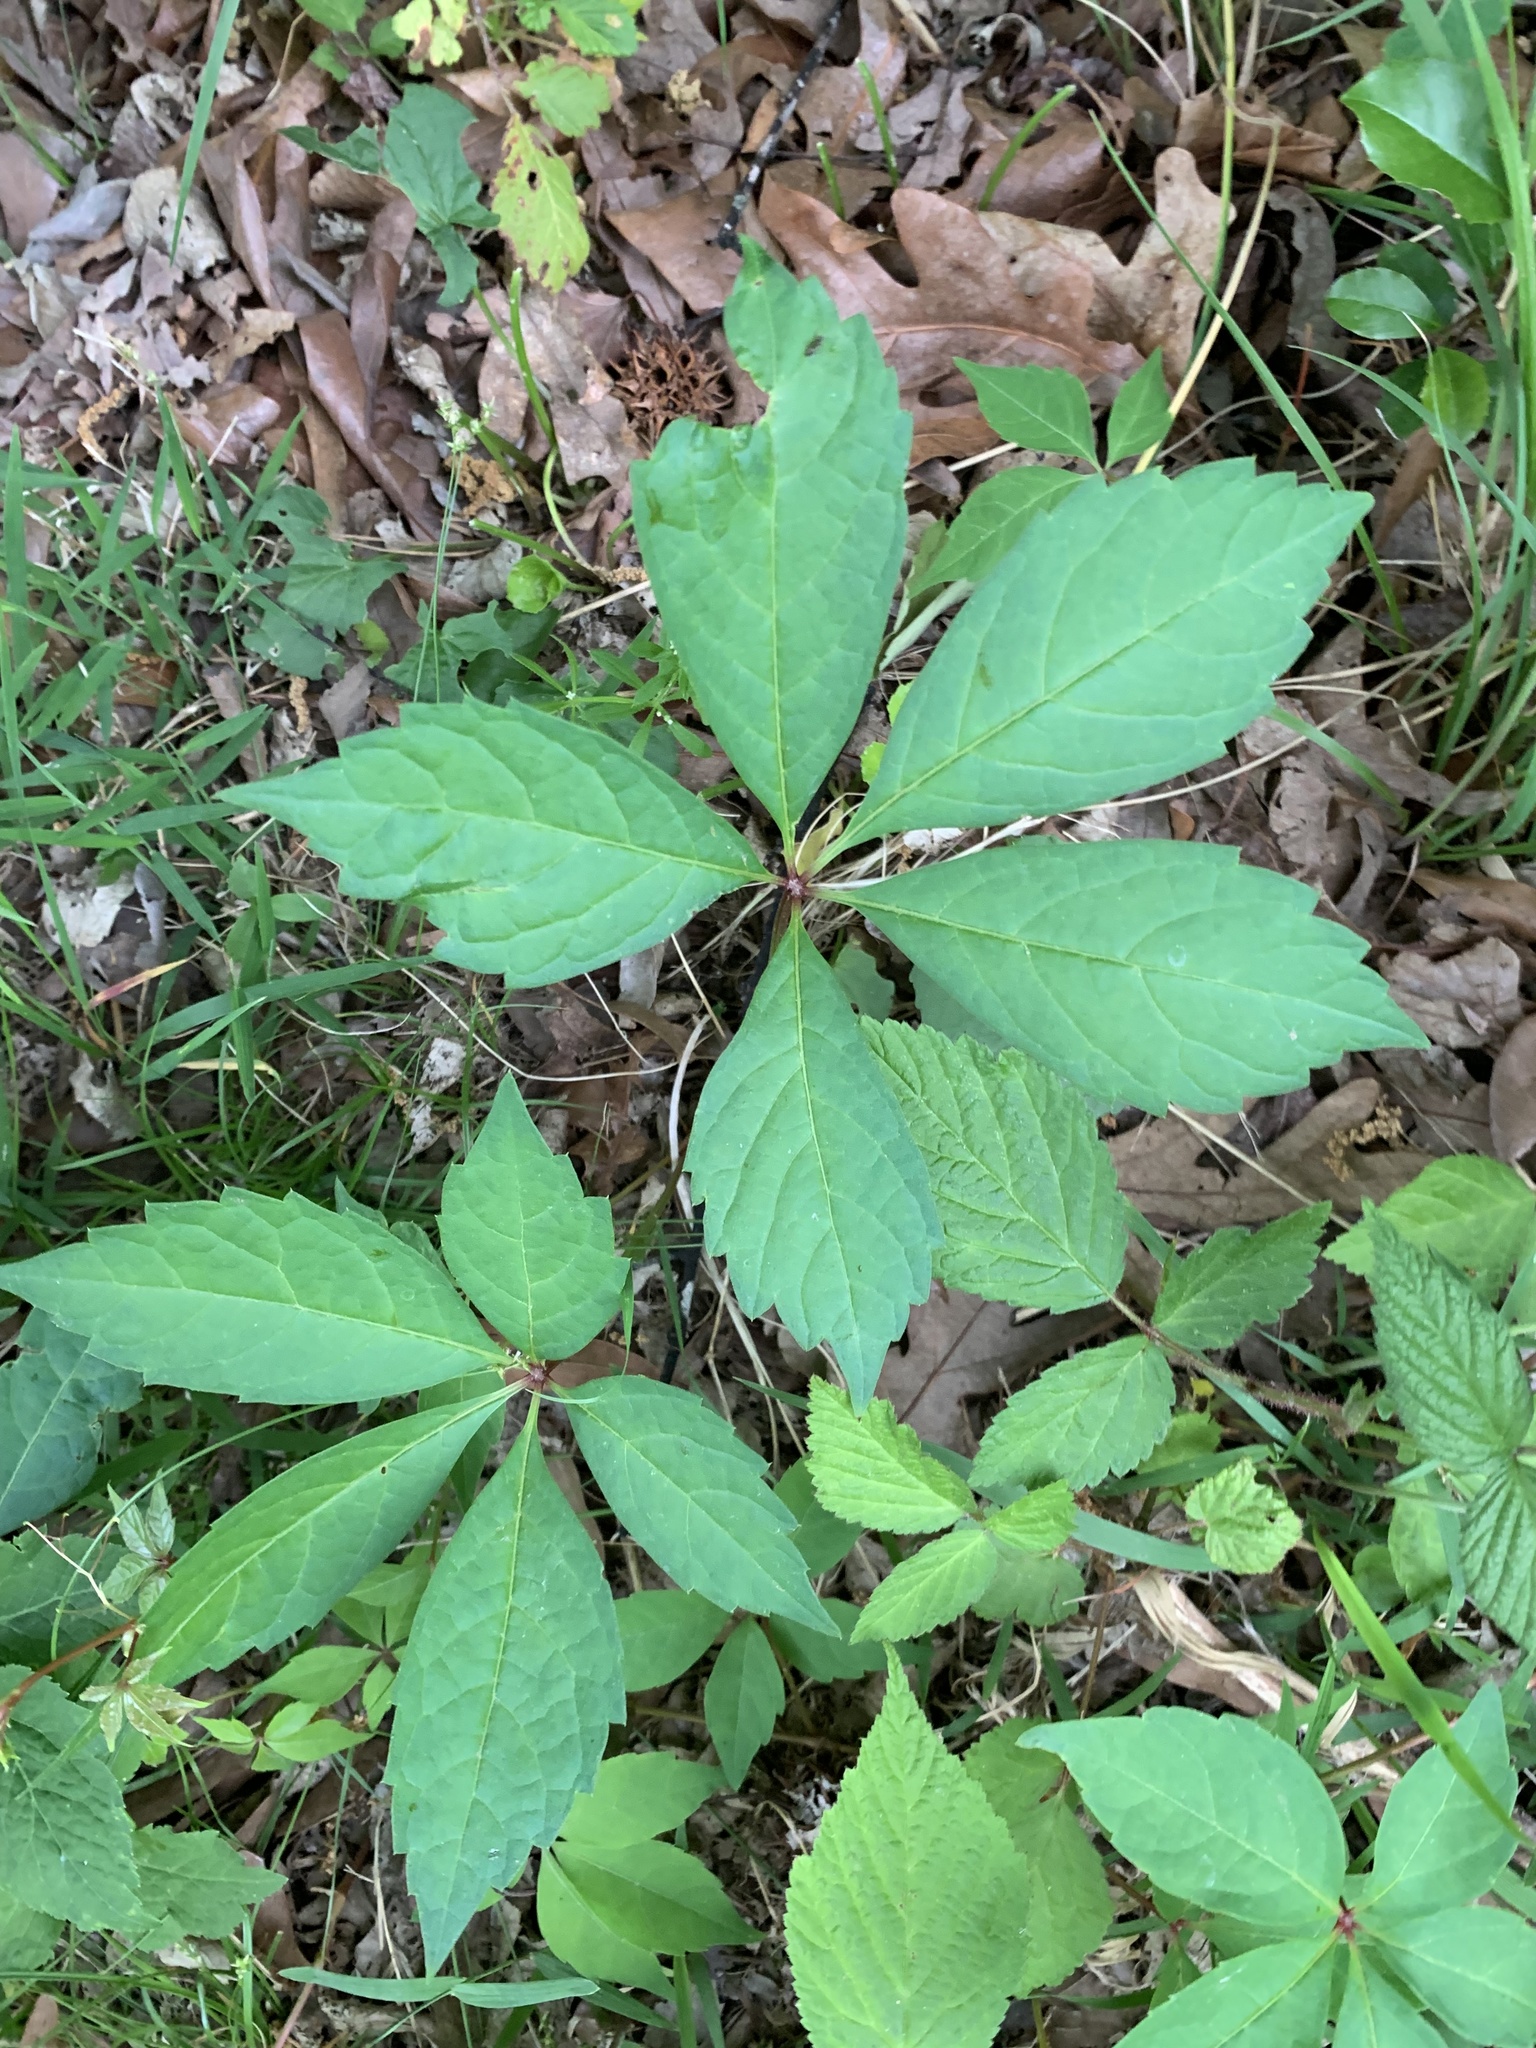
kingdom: Plantae
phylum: Tracheophyta
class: Magnoliopsida
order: Vitales
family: Vitaceae
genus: Parthenocissus
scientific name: Parthenocissus quinquefolia
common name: Virginia-creeper
